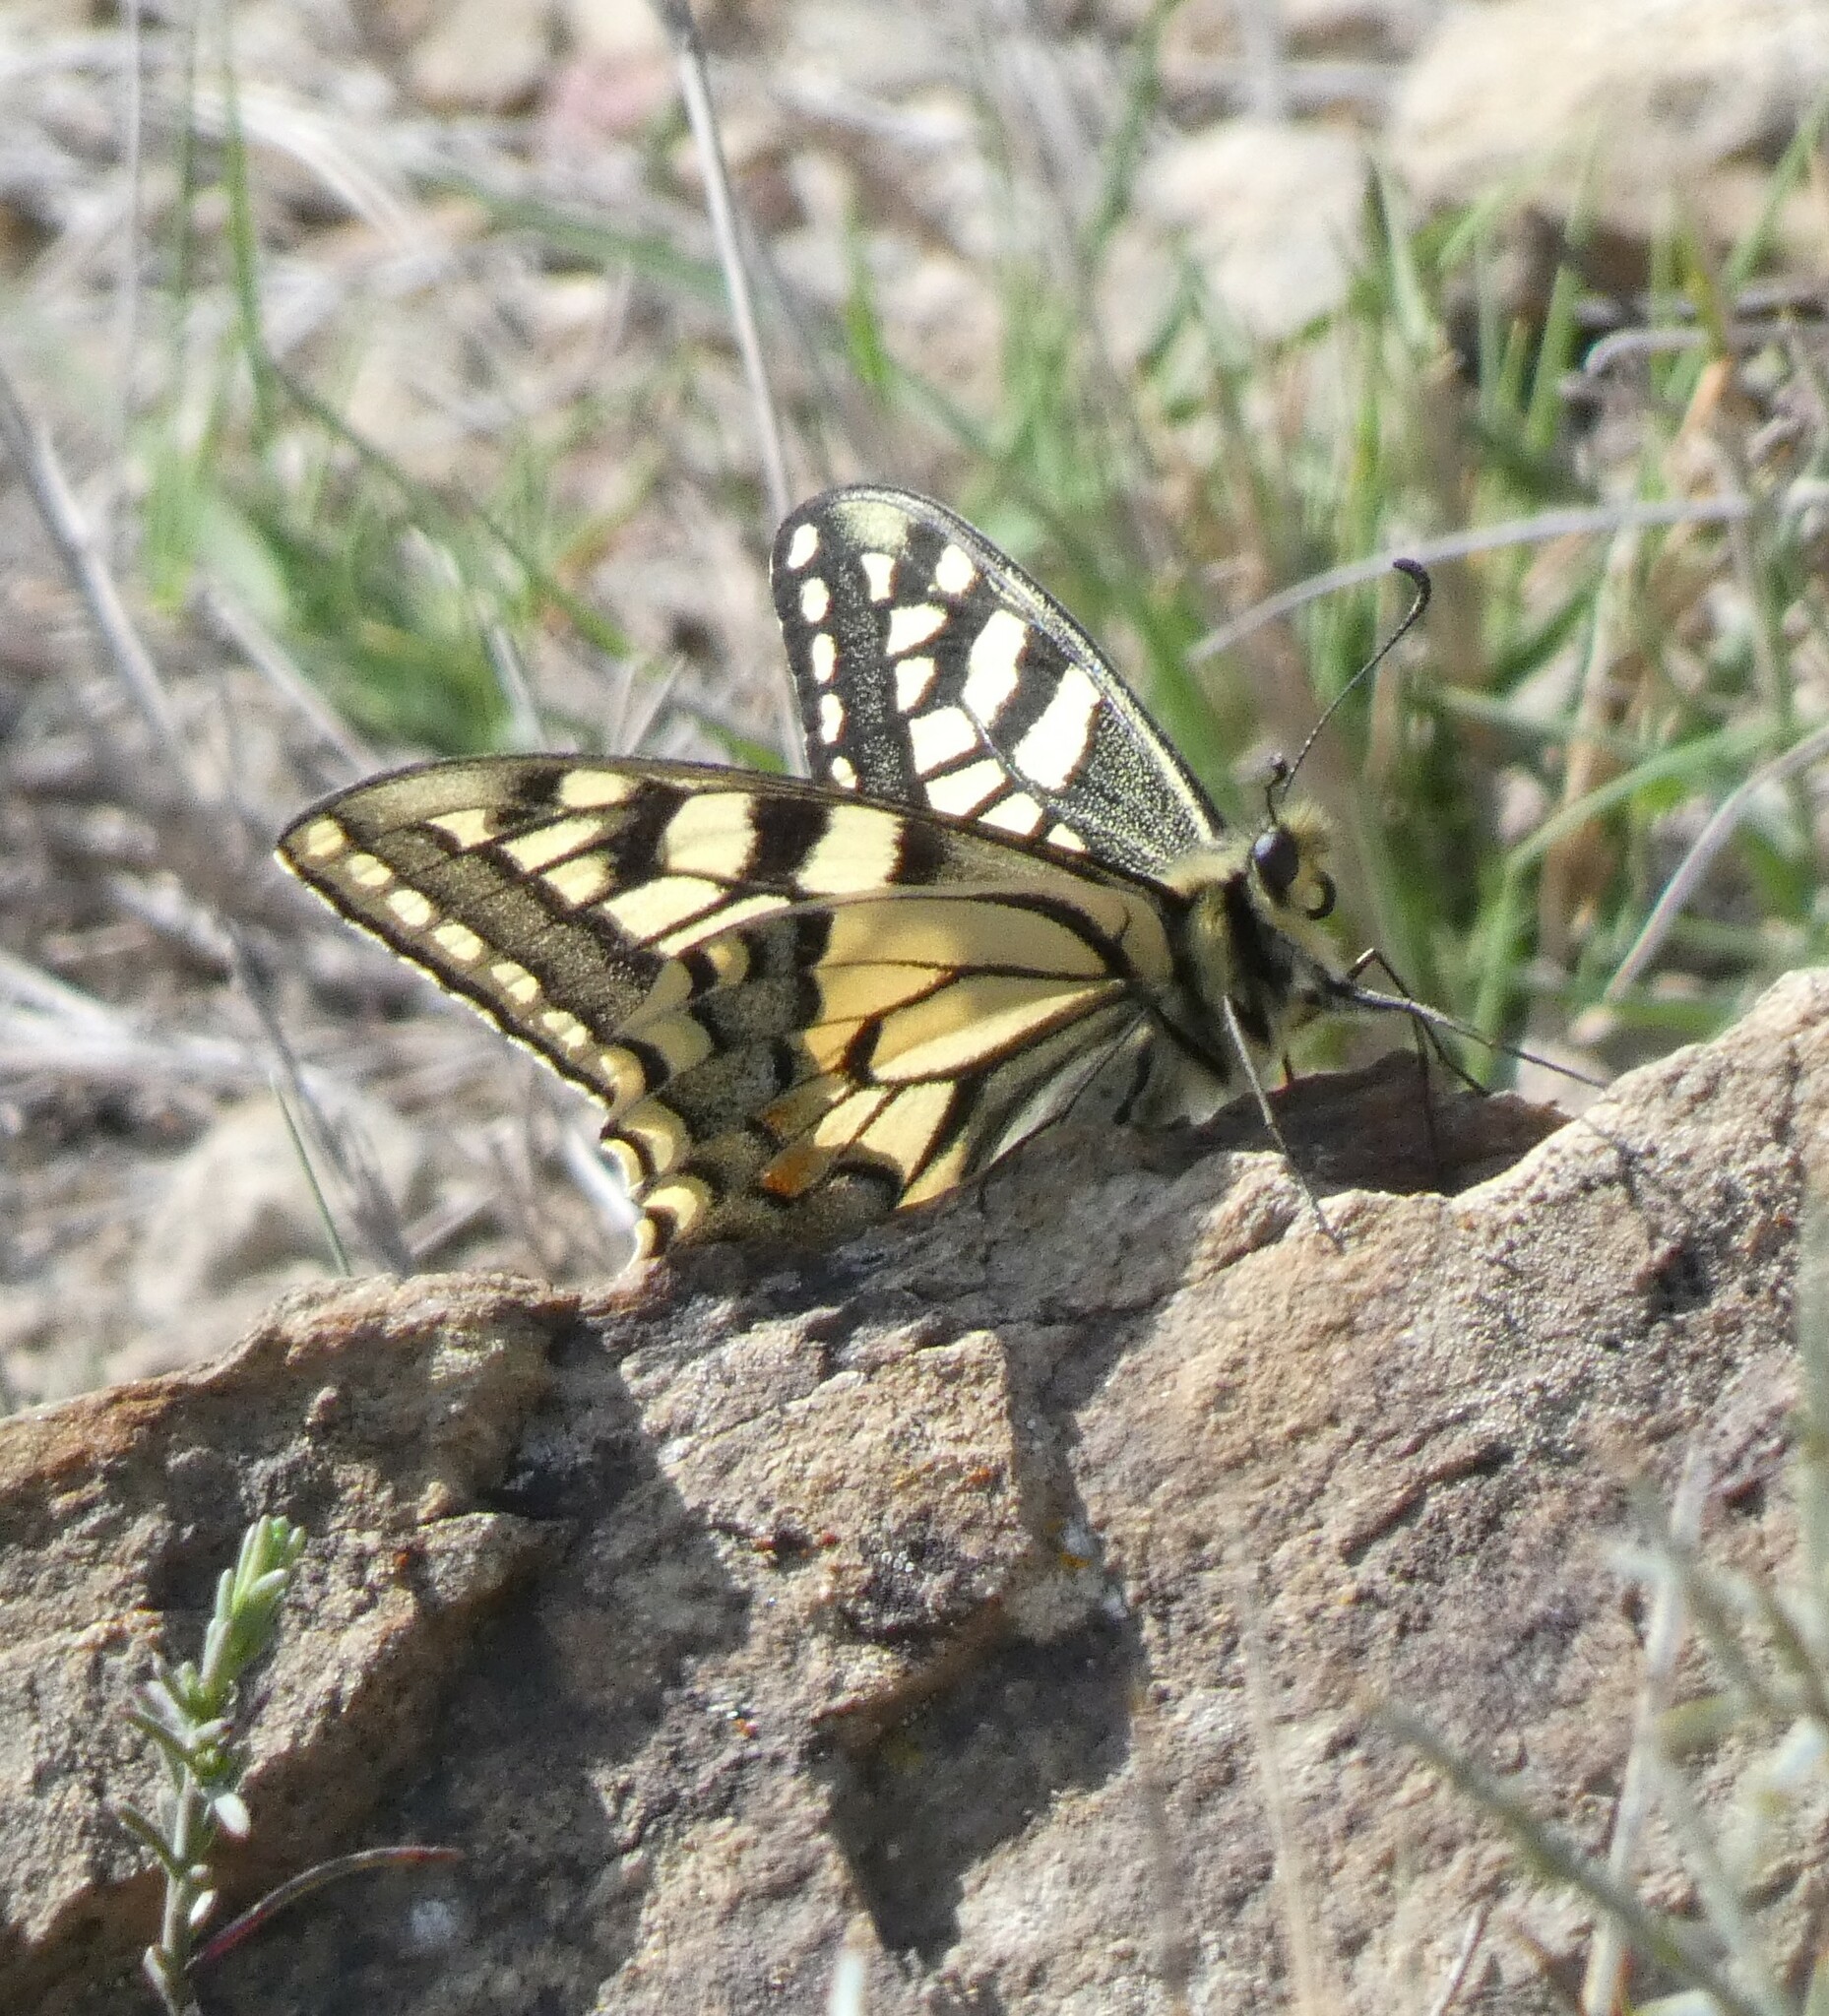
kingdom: Animalia
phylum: Arthropoda
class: Insecta
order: Lepidoptera
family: Papilionidae
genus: Papilio
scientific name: Papilio machaon
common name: Swallowtail
